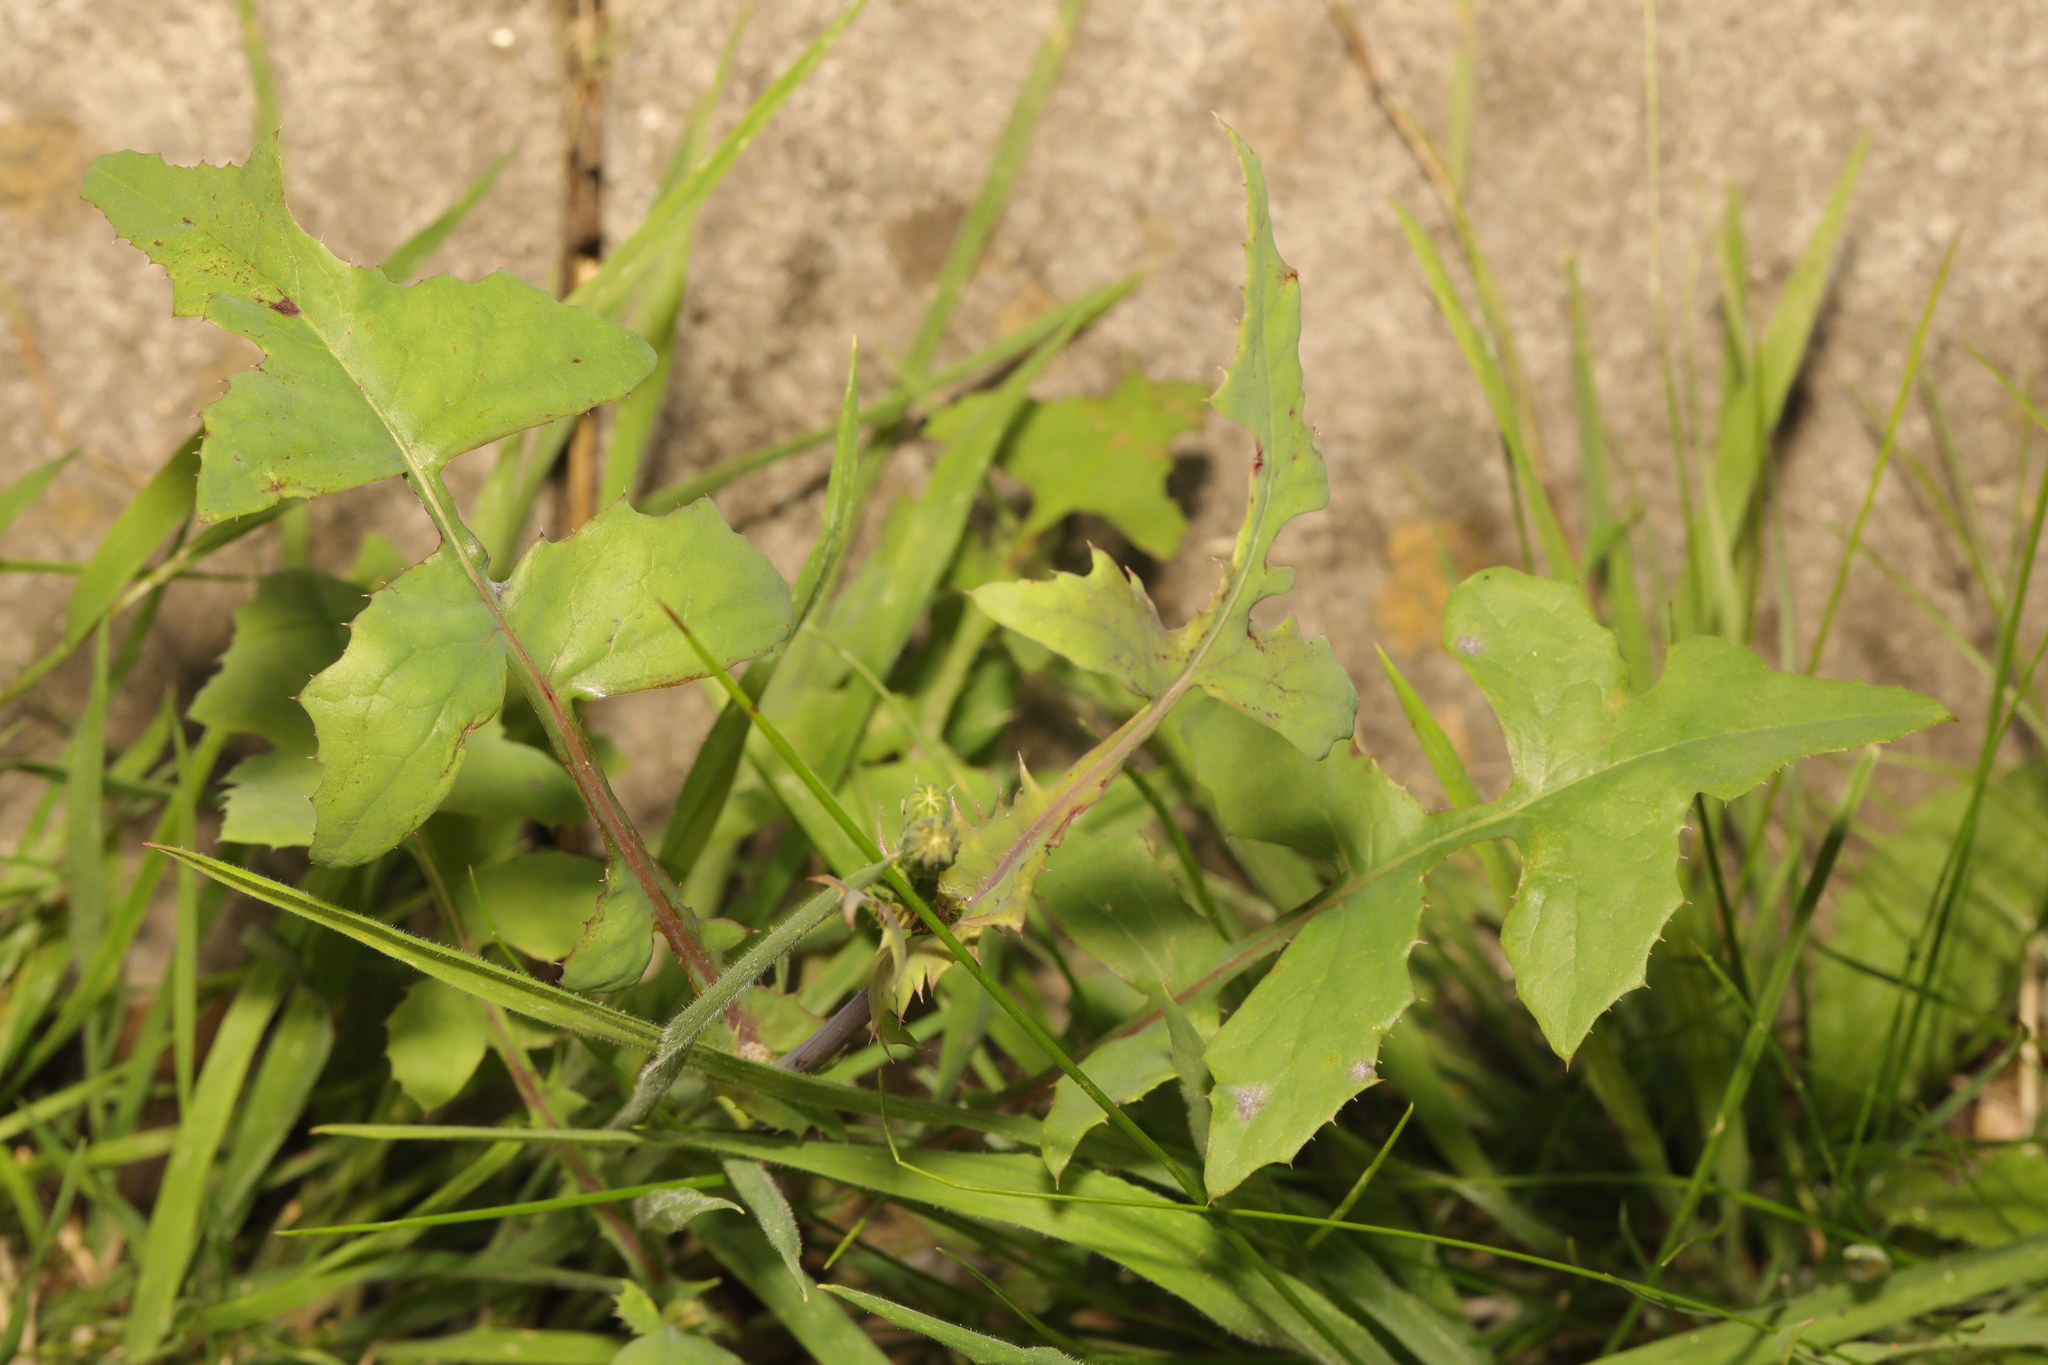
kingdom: Plantae
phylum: Tracheophyta
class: Magnoliopsida
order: Asterales
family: Asteraceae
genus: Sonchus
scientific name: Sonchus oleraceus
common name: Common sowthistle
